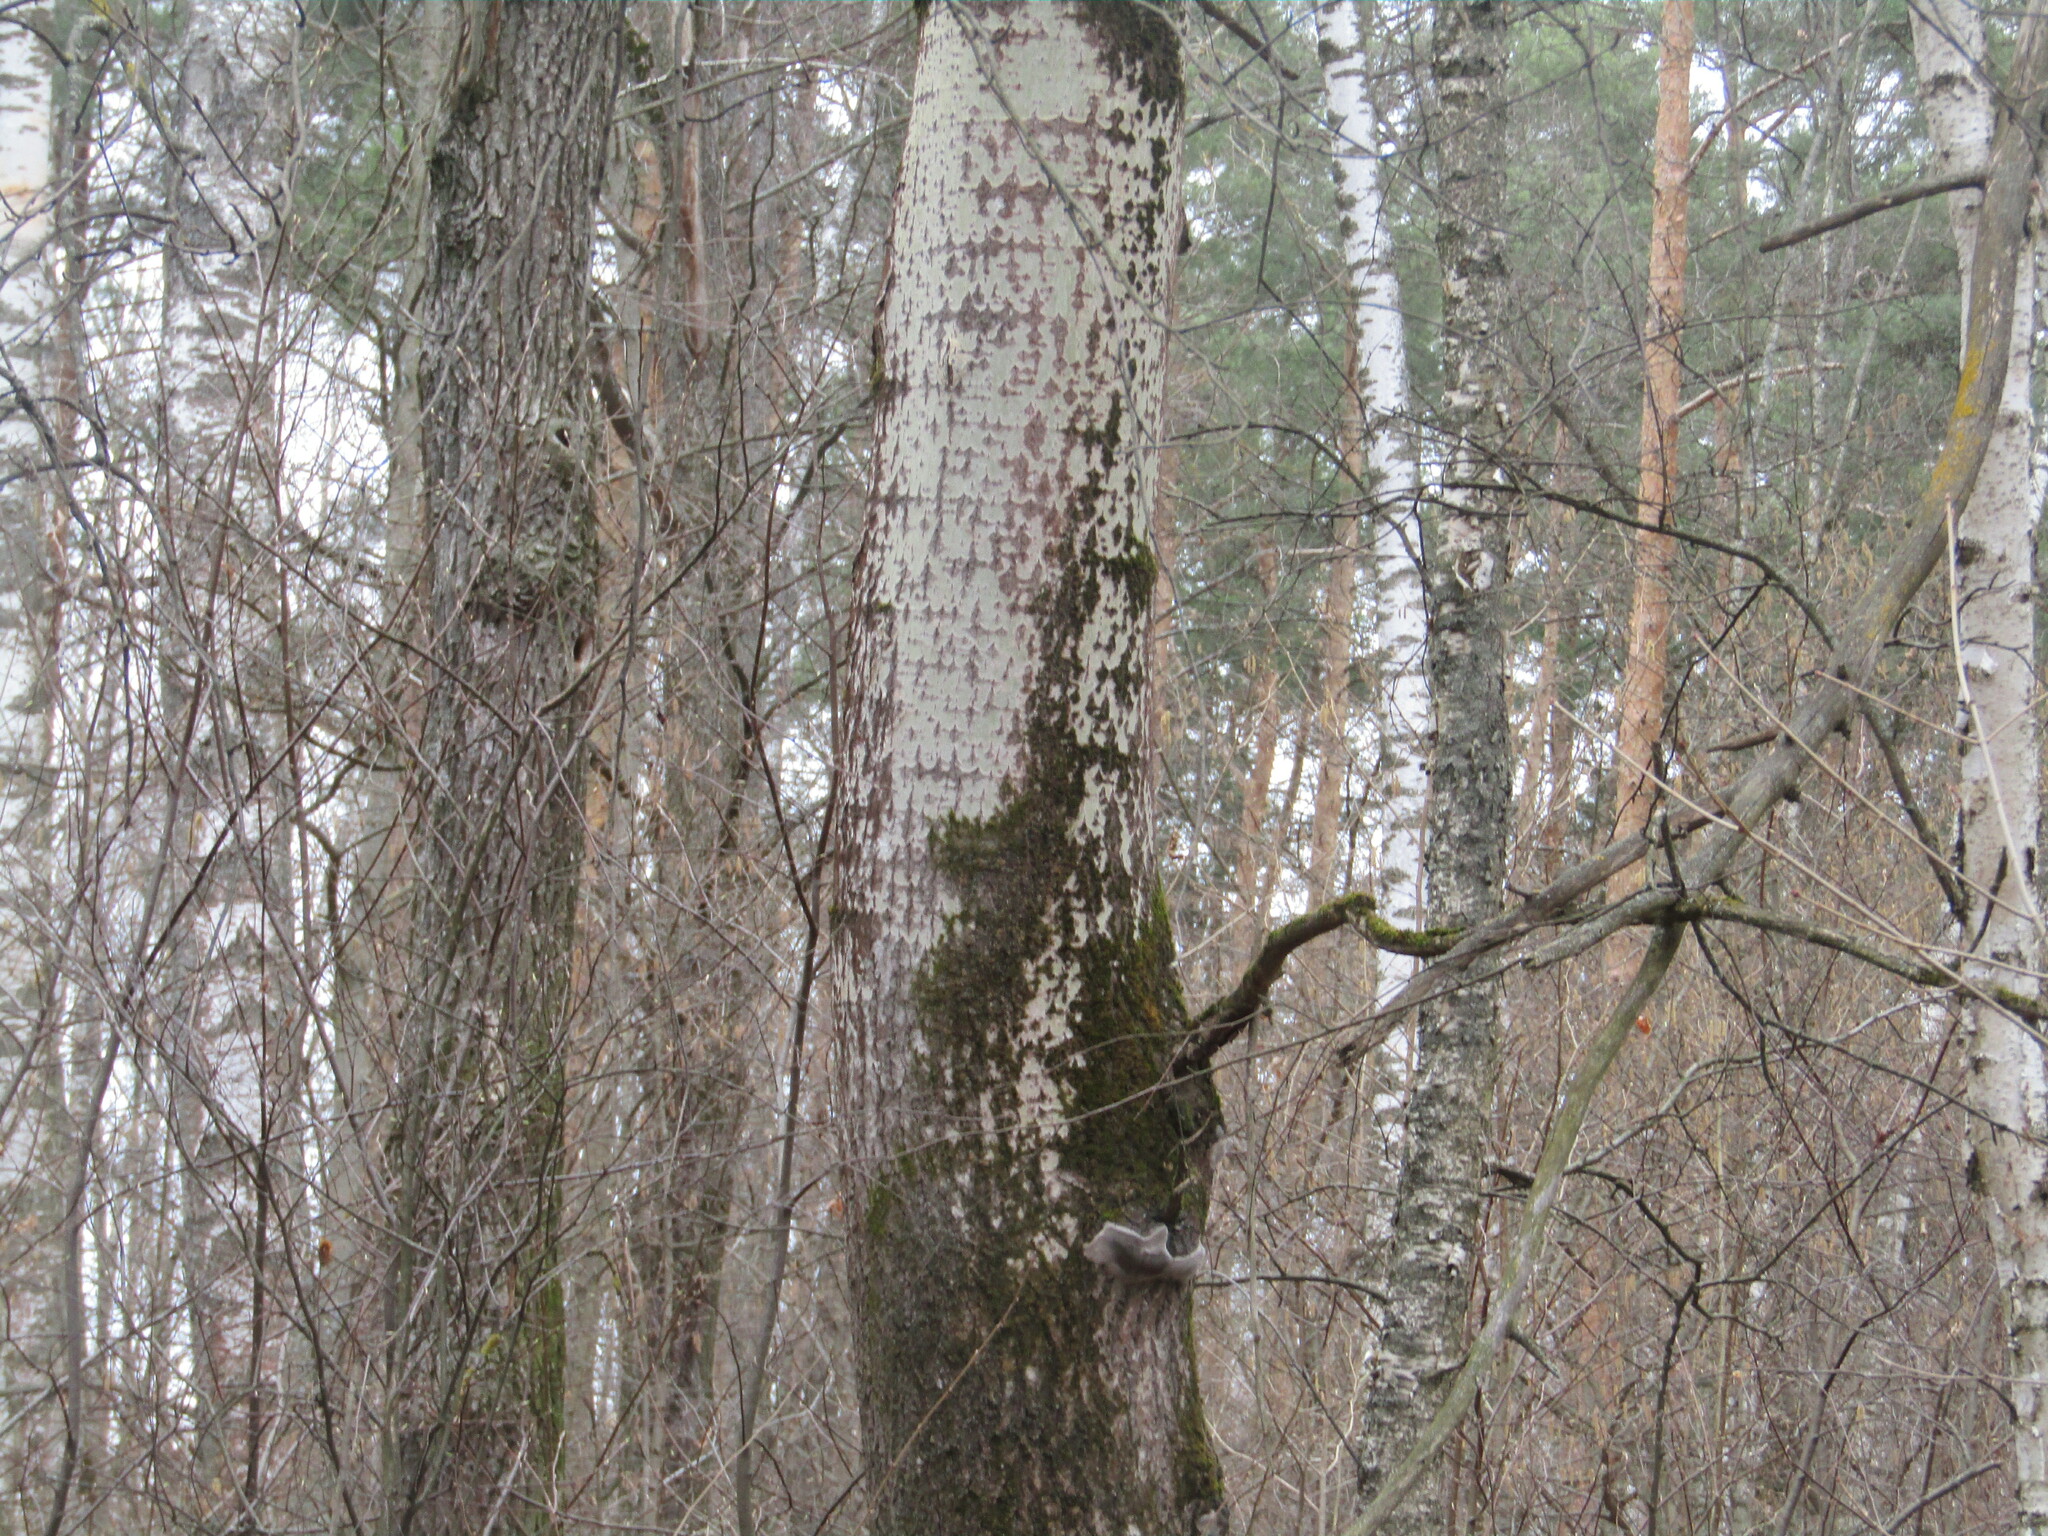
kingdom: Plantae
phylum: Tracheophyta
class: Magnoliopsida
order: Malpighiales
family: Salicaceae
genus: Populus
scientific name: Populus tremula
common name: European aspen
